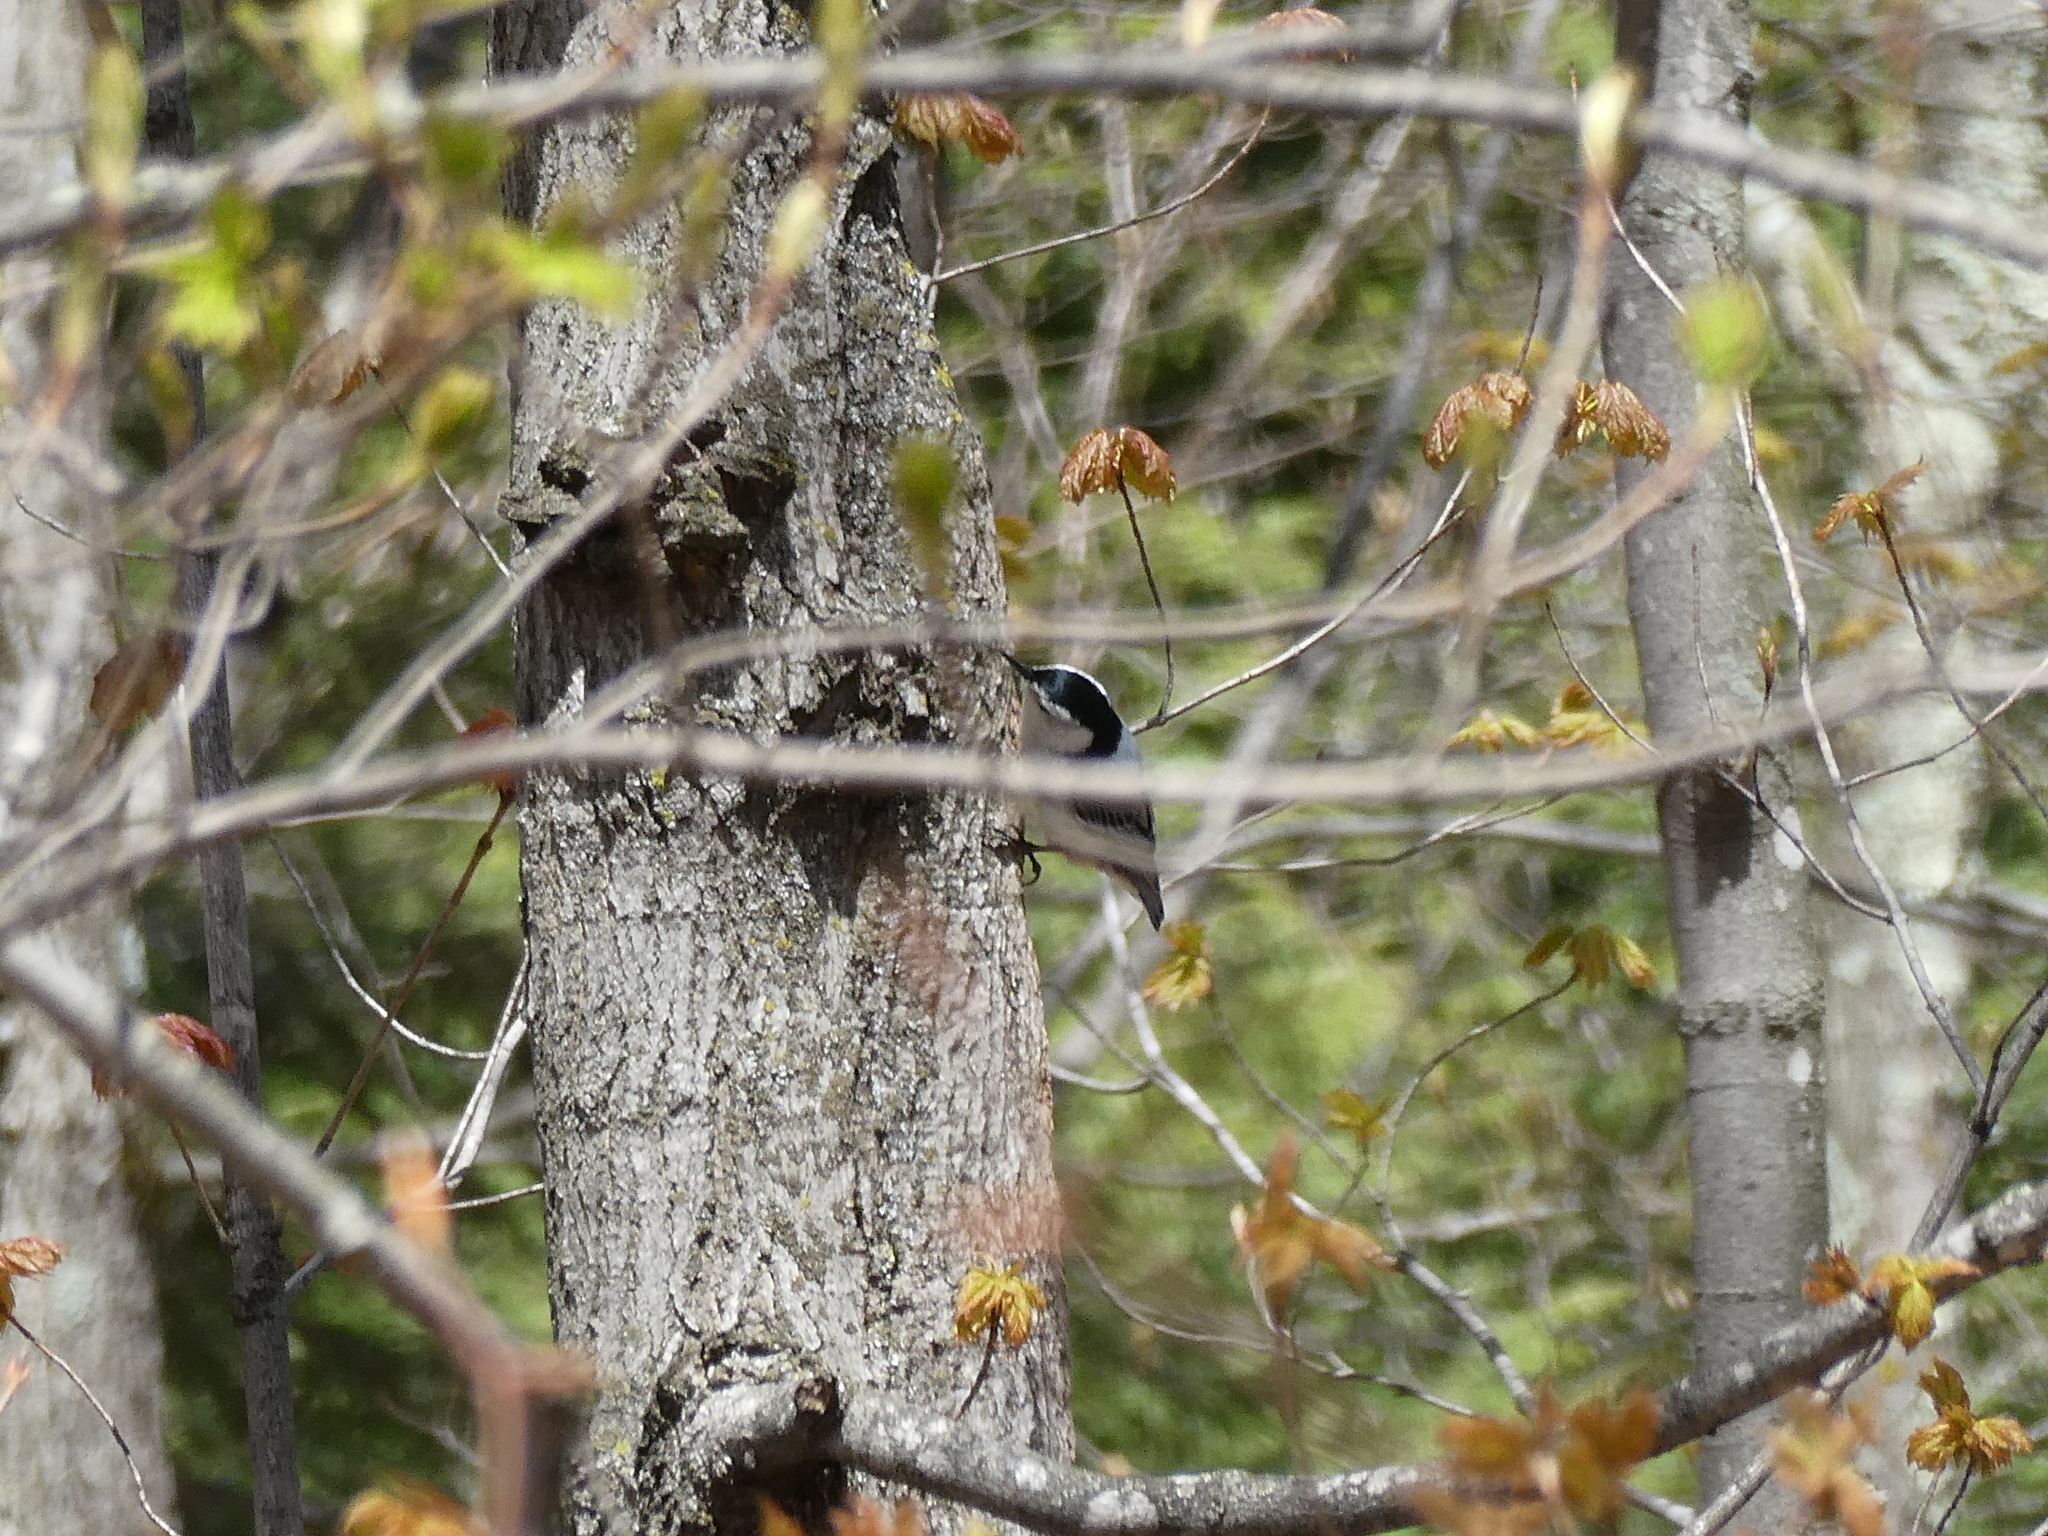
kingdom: Animalia
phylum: Chordata
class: Aves
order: Passeriformes
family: Sittidae
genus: Sitta
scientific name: Sitta carolinensis
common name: White-breasted nuthatch
